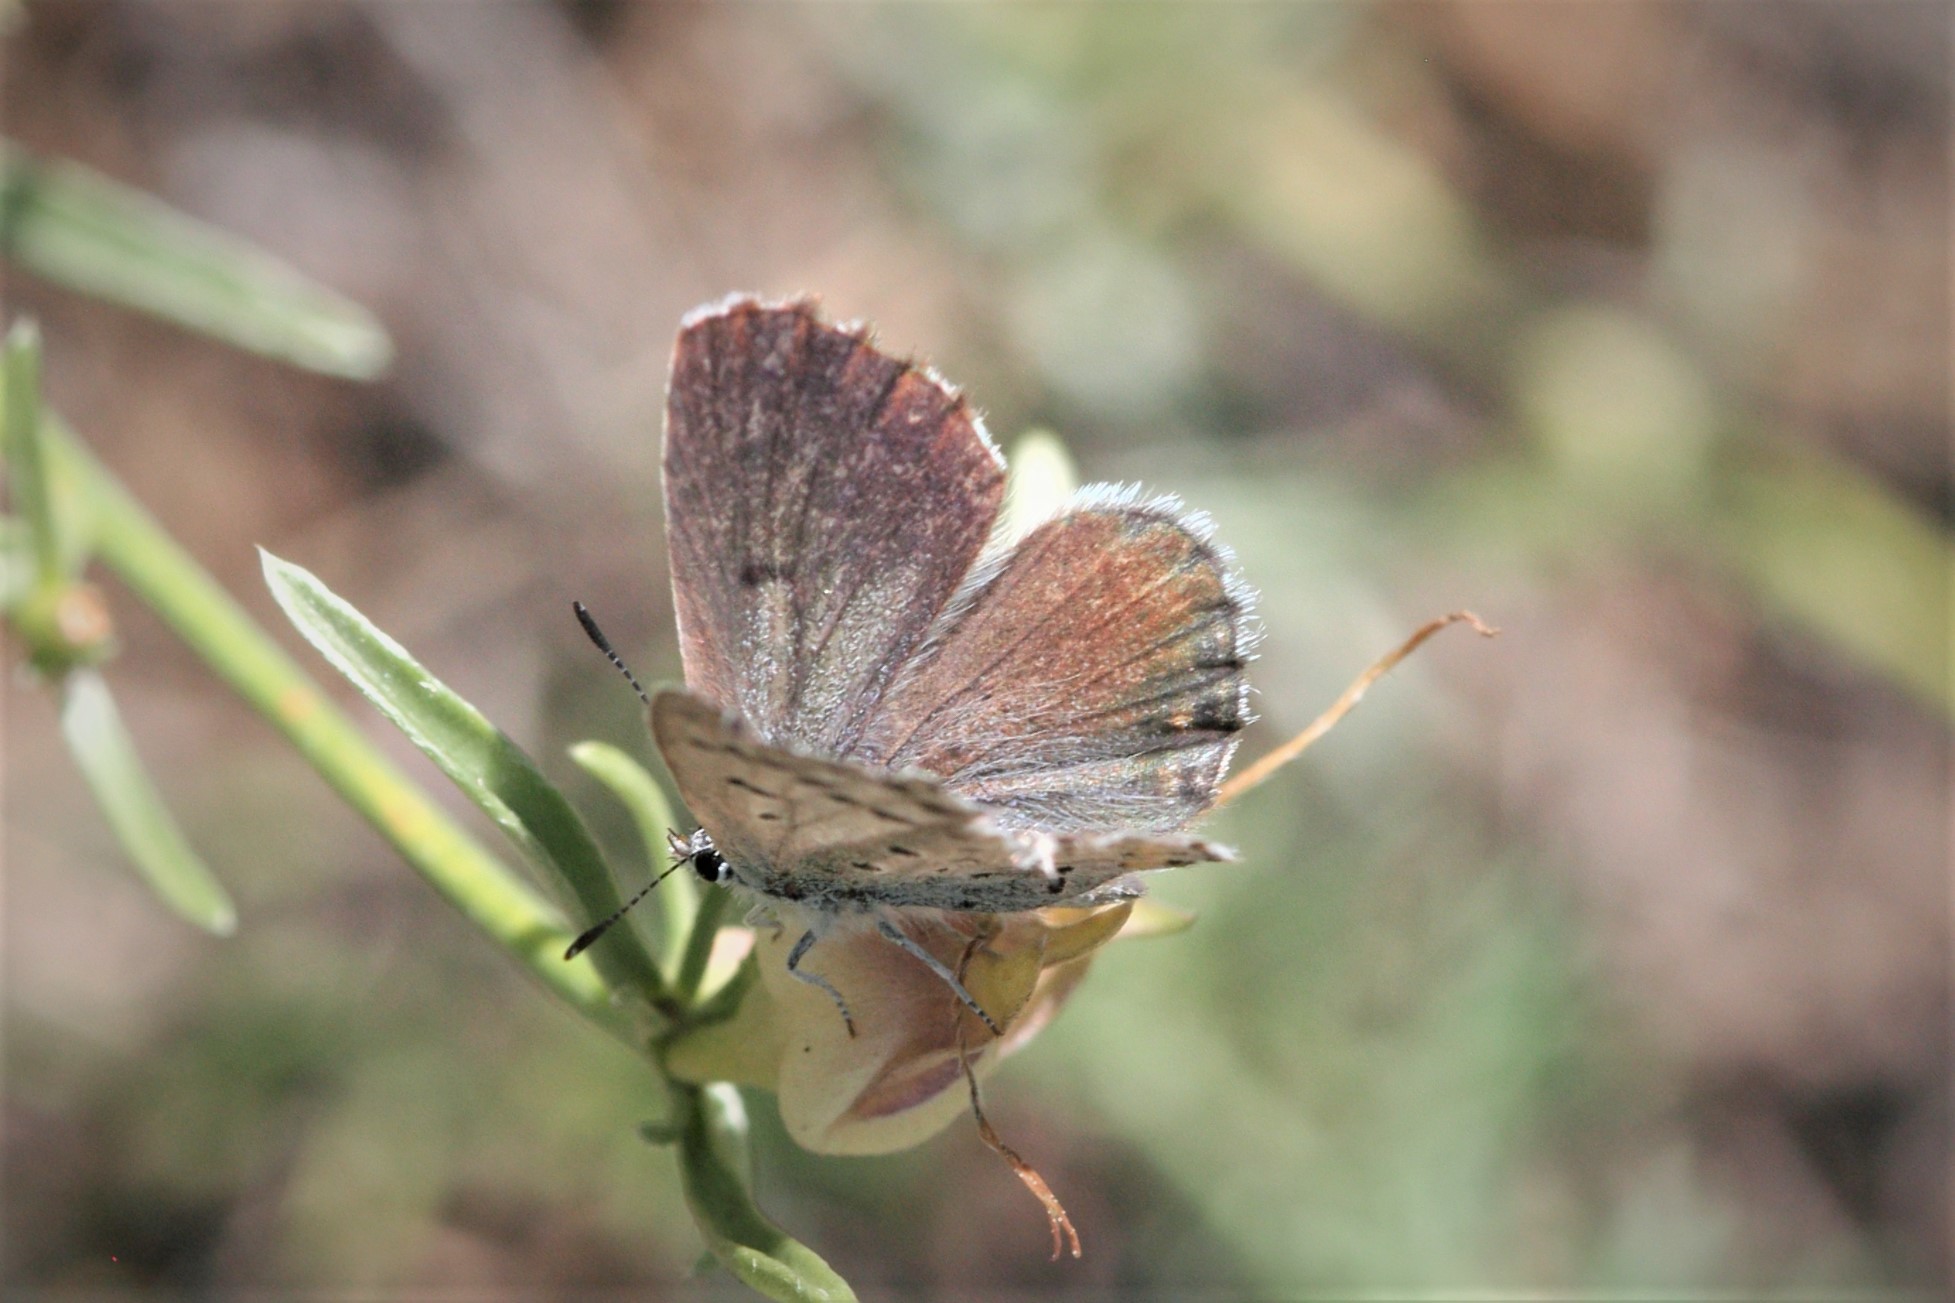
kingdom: Animalia
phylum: Arthropoda
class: Insecta
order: Lepidoptera
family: Lycaenidae
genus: Pseudophilotes
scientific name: Pseudophilotes baton
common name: Baton blue
